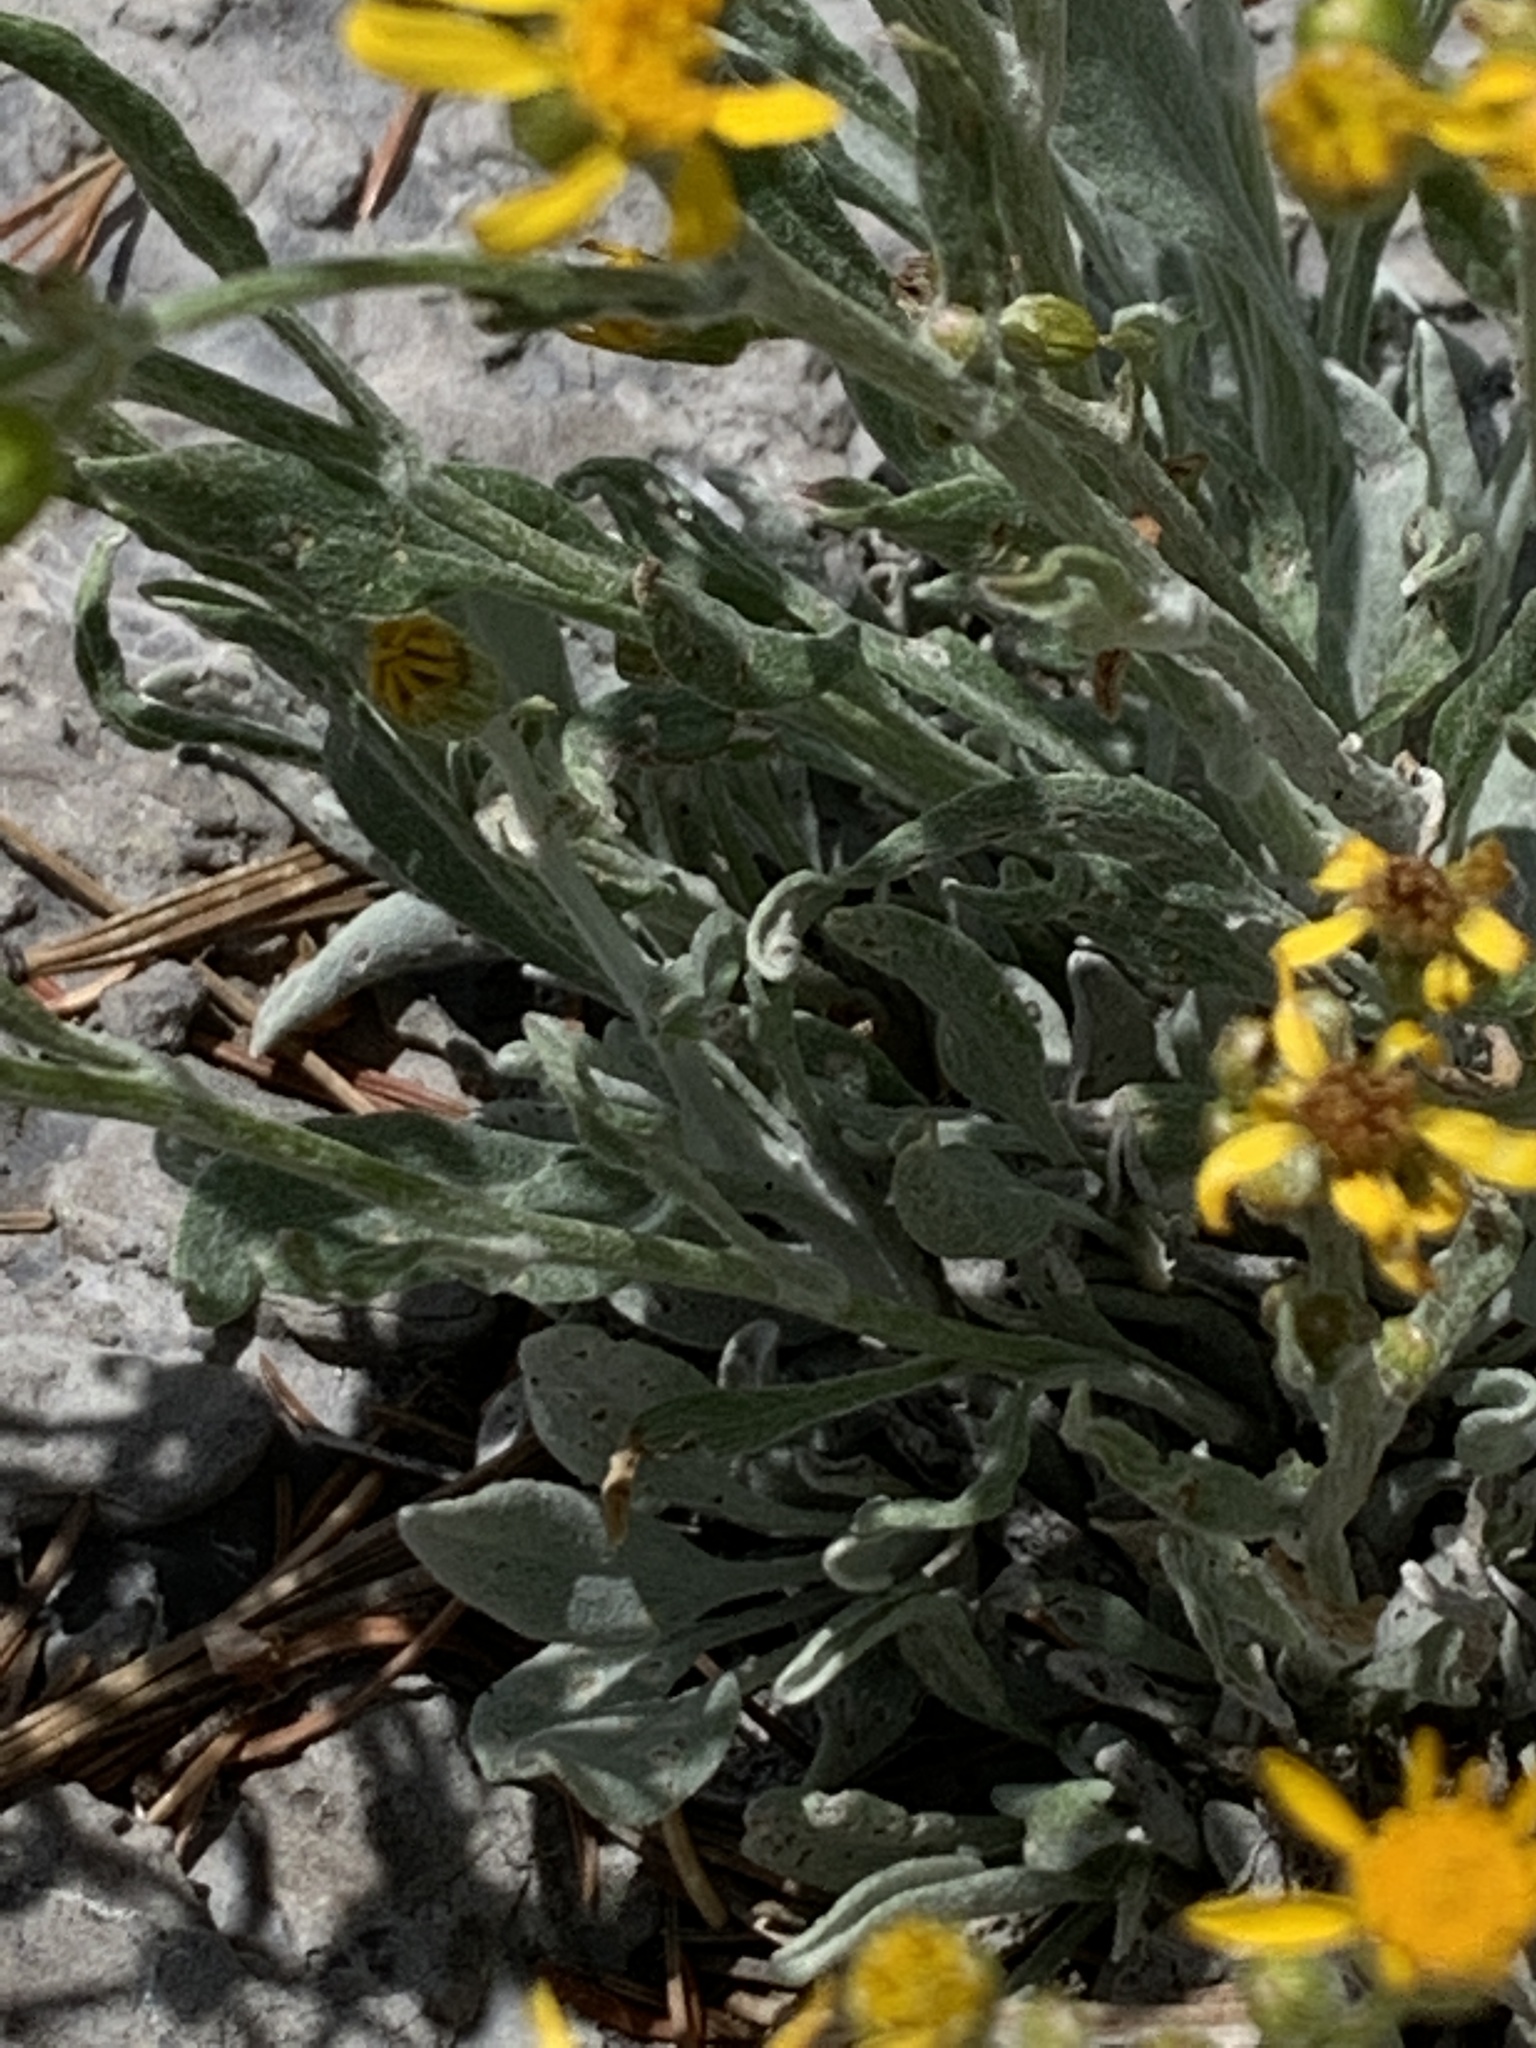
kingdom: Plantae
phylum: Tracheophyta
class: Magnoliopsida
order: Asterales
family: Asteraceae
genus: Packera
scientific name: Packera cana
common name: Woolly groundsel
